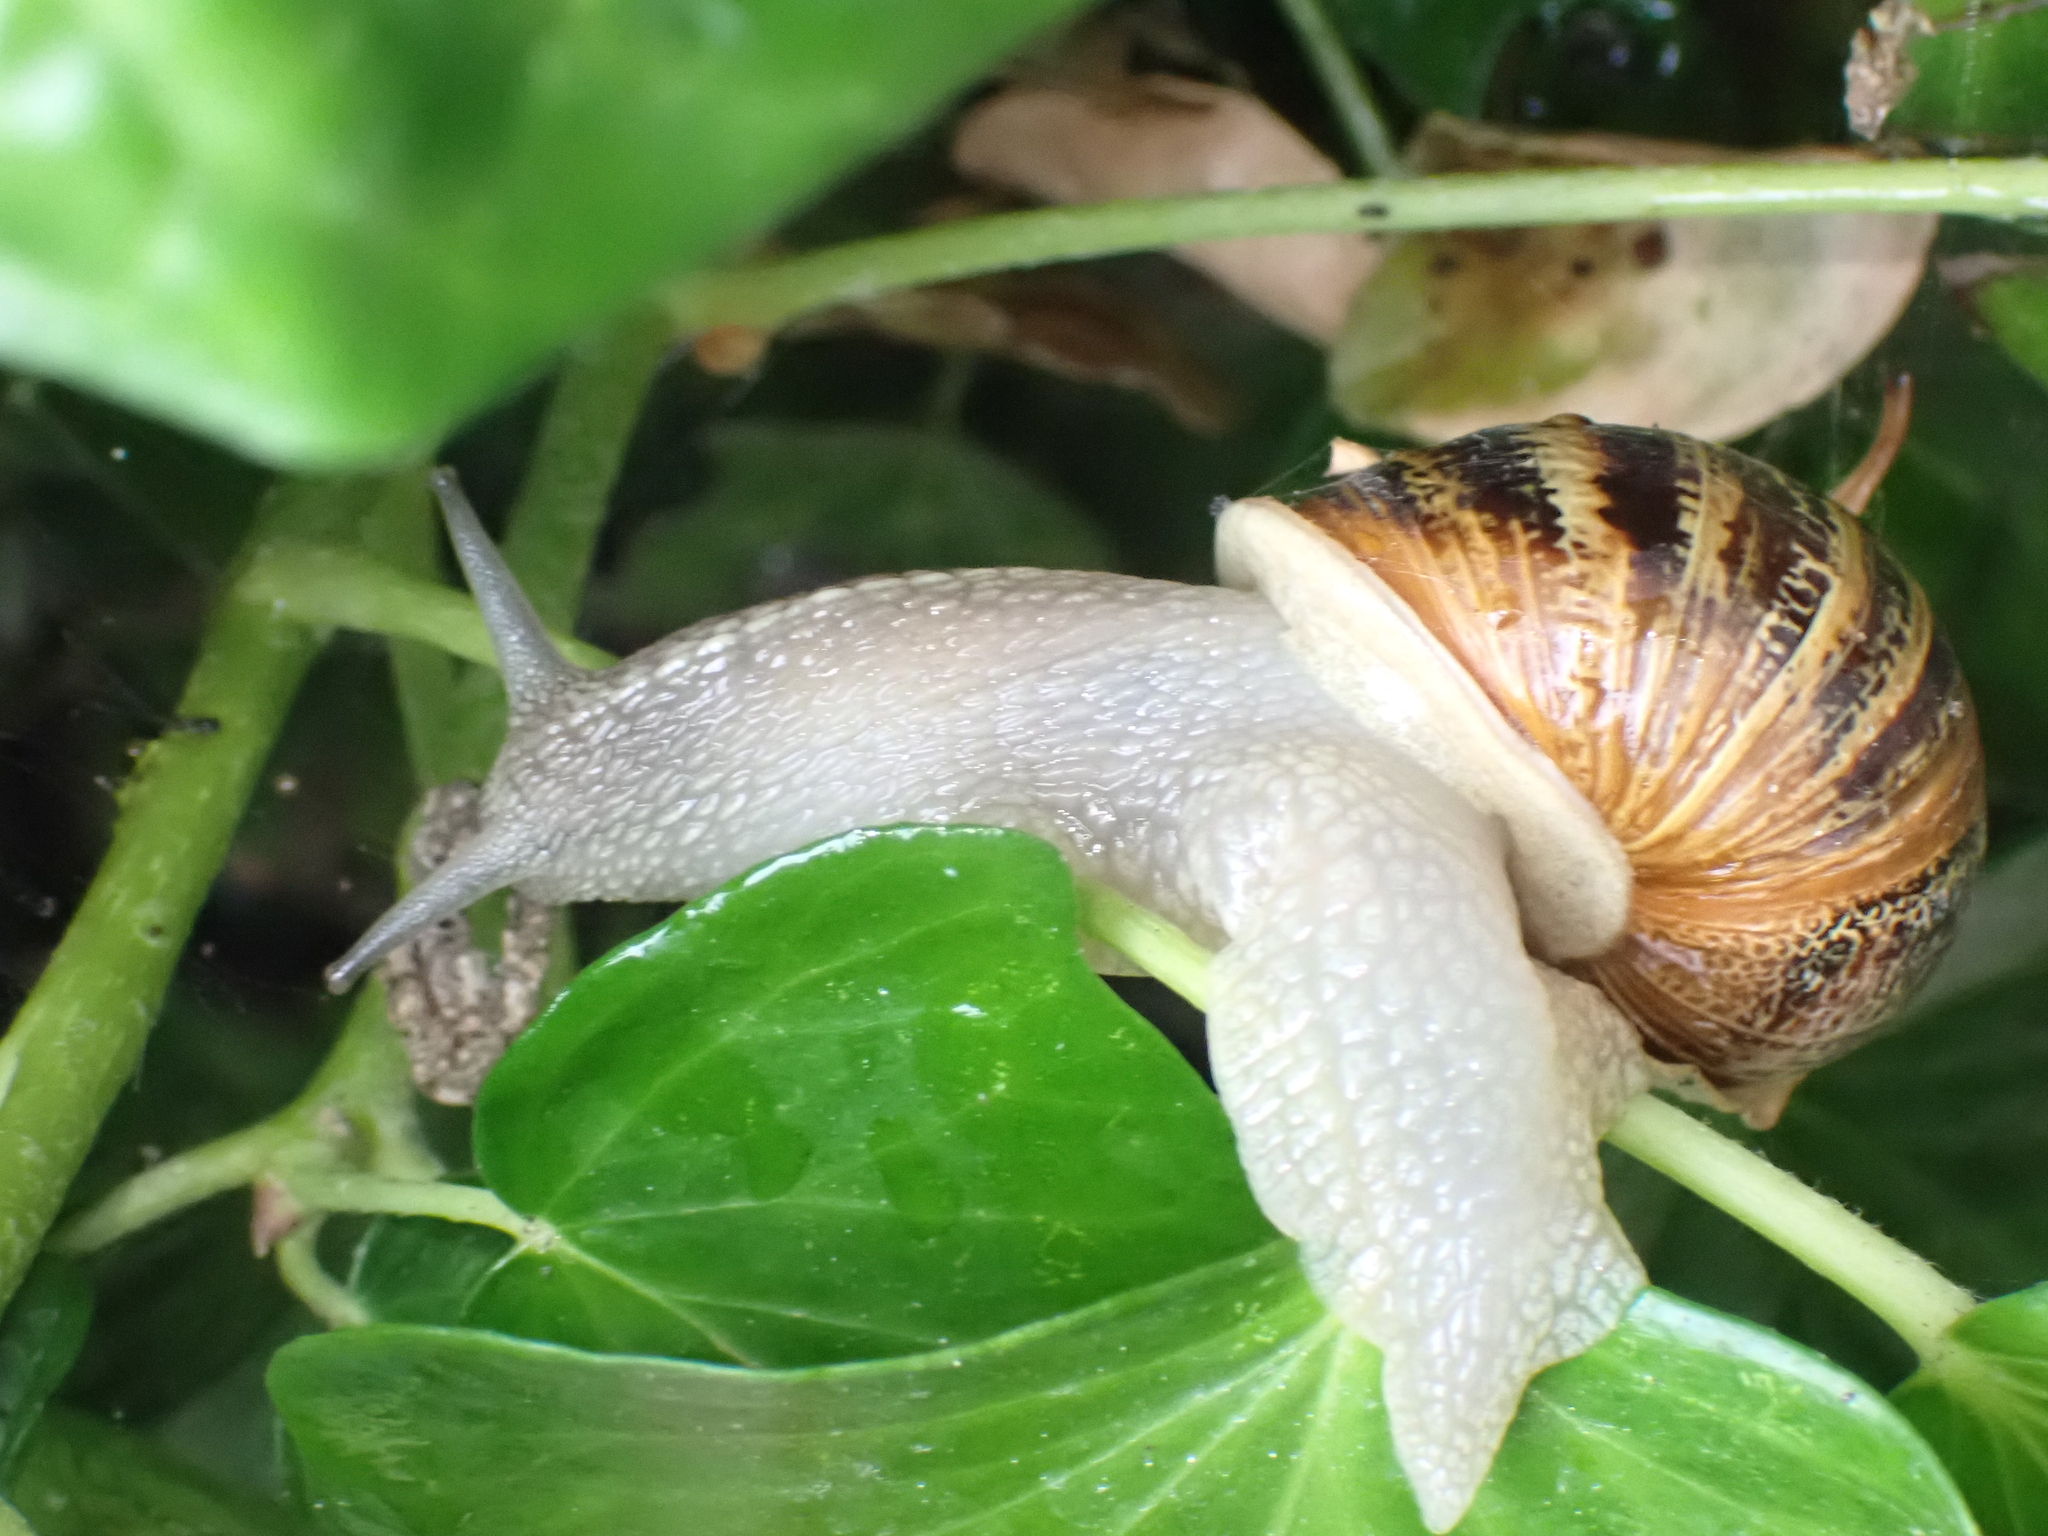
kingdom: Animalia
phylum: Mollusca
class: Gastropoda
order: Stylommatophora
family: Helicidae
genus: Cornu
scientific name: Cornu aspersum
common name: Brown garden snail
